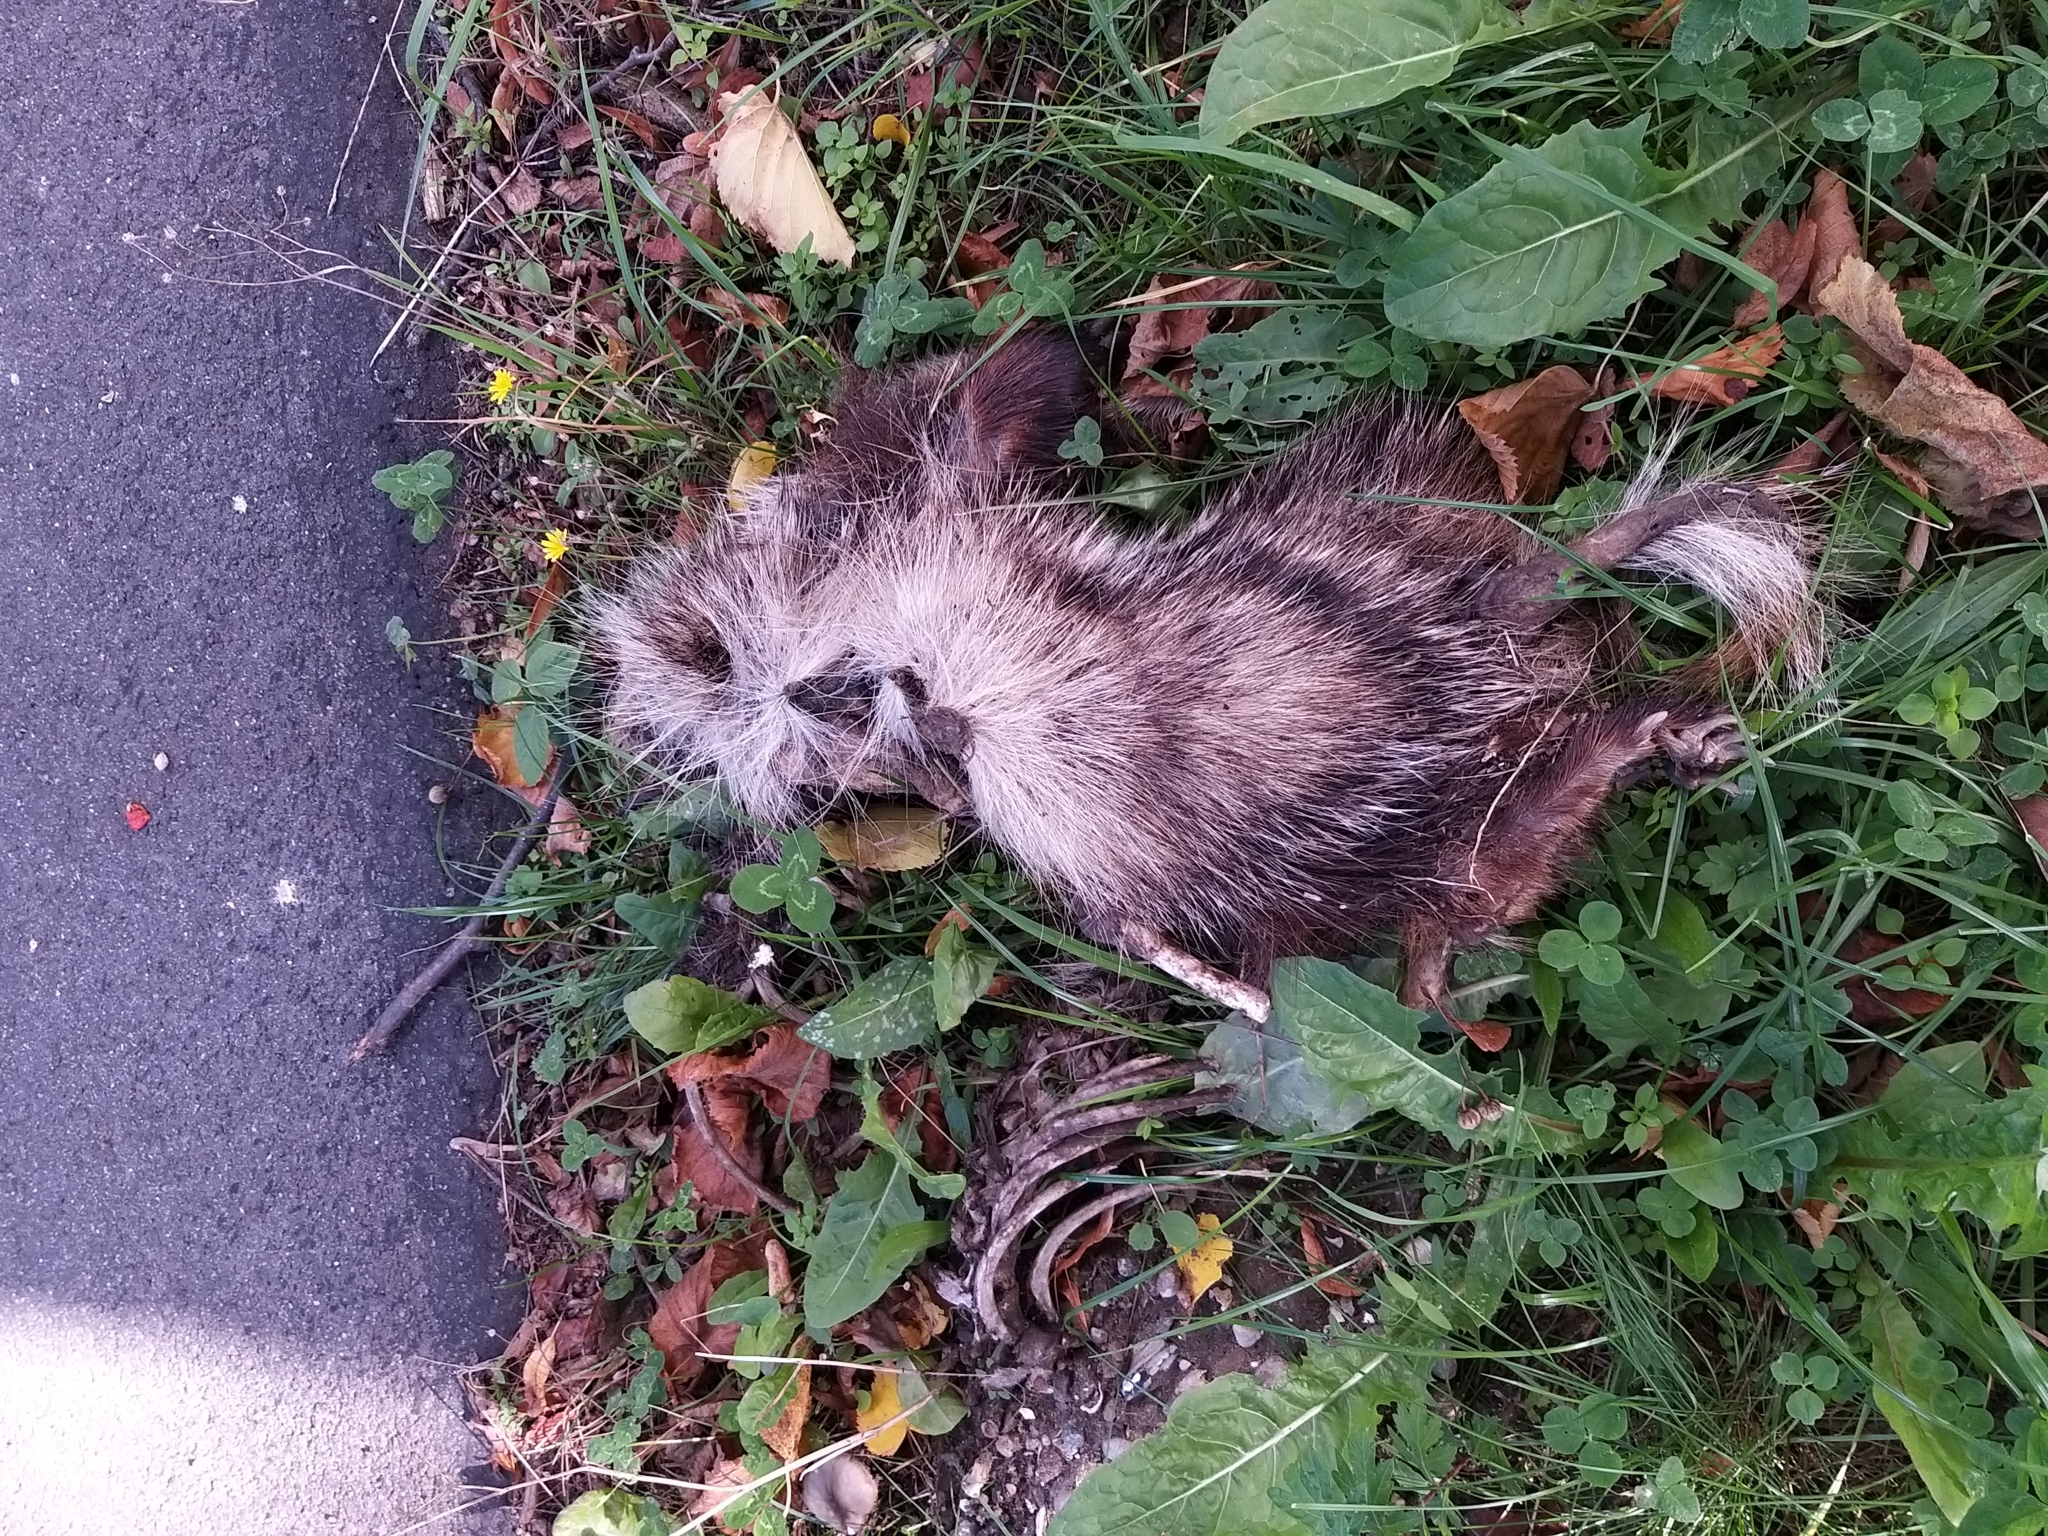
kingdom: Animalia
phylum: Chordata
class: Mammalia
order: Carnivora
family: Canidae
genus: Nyctereutes
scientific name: Nyctereutes procyonoides
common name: Raccoon dog
